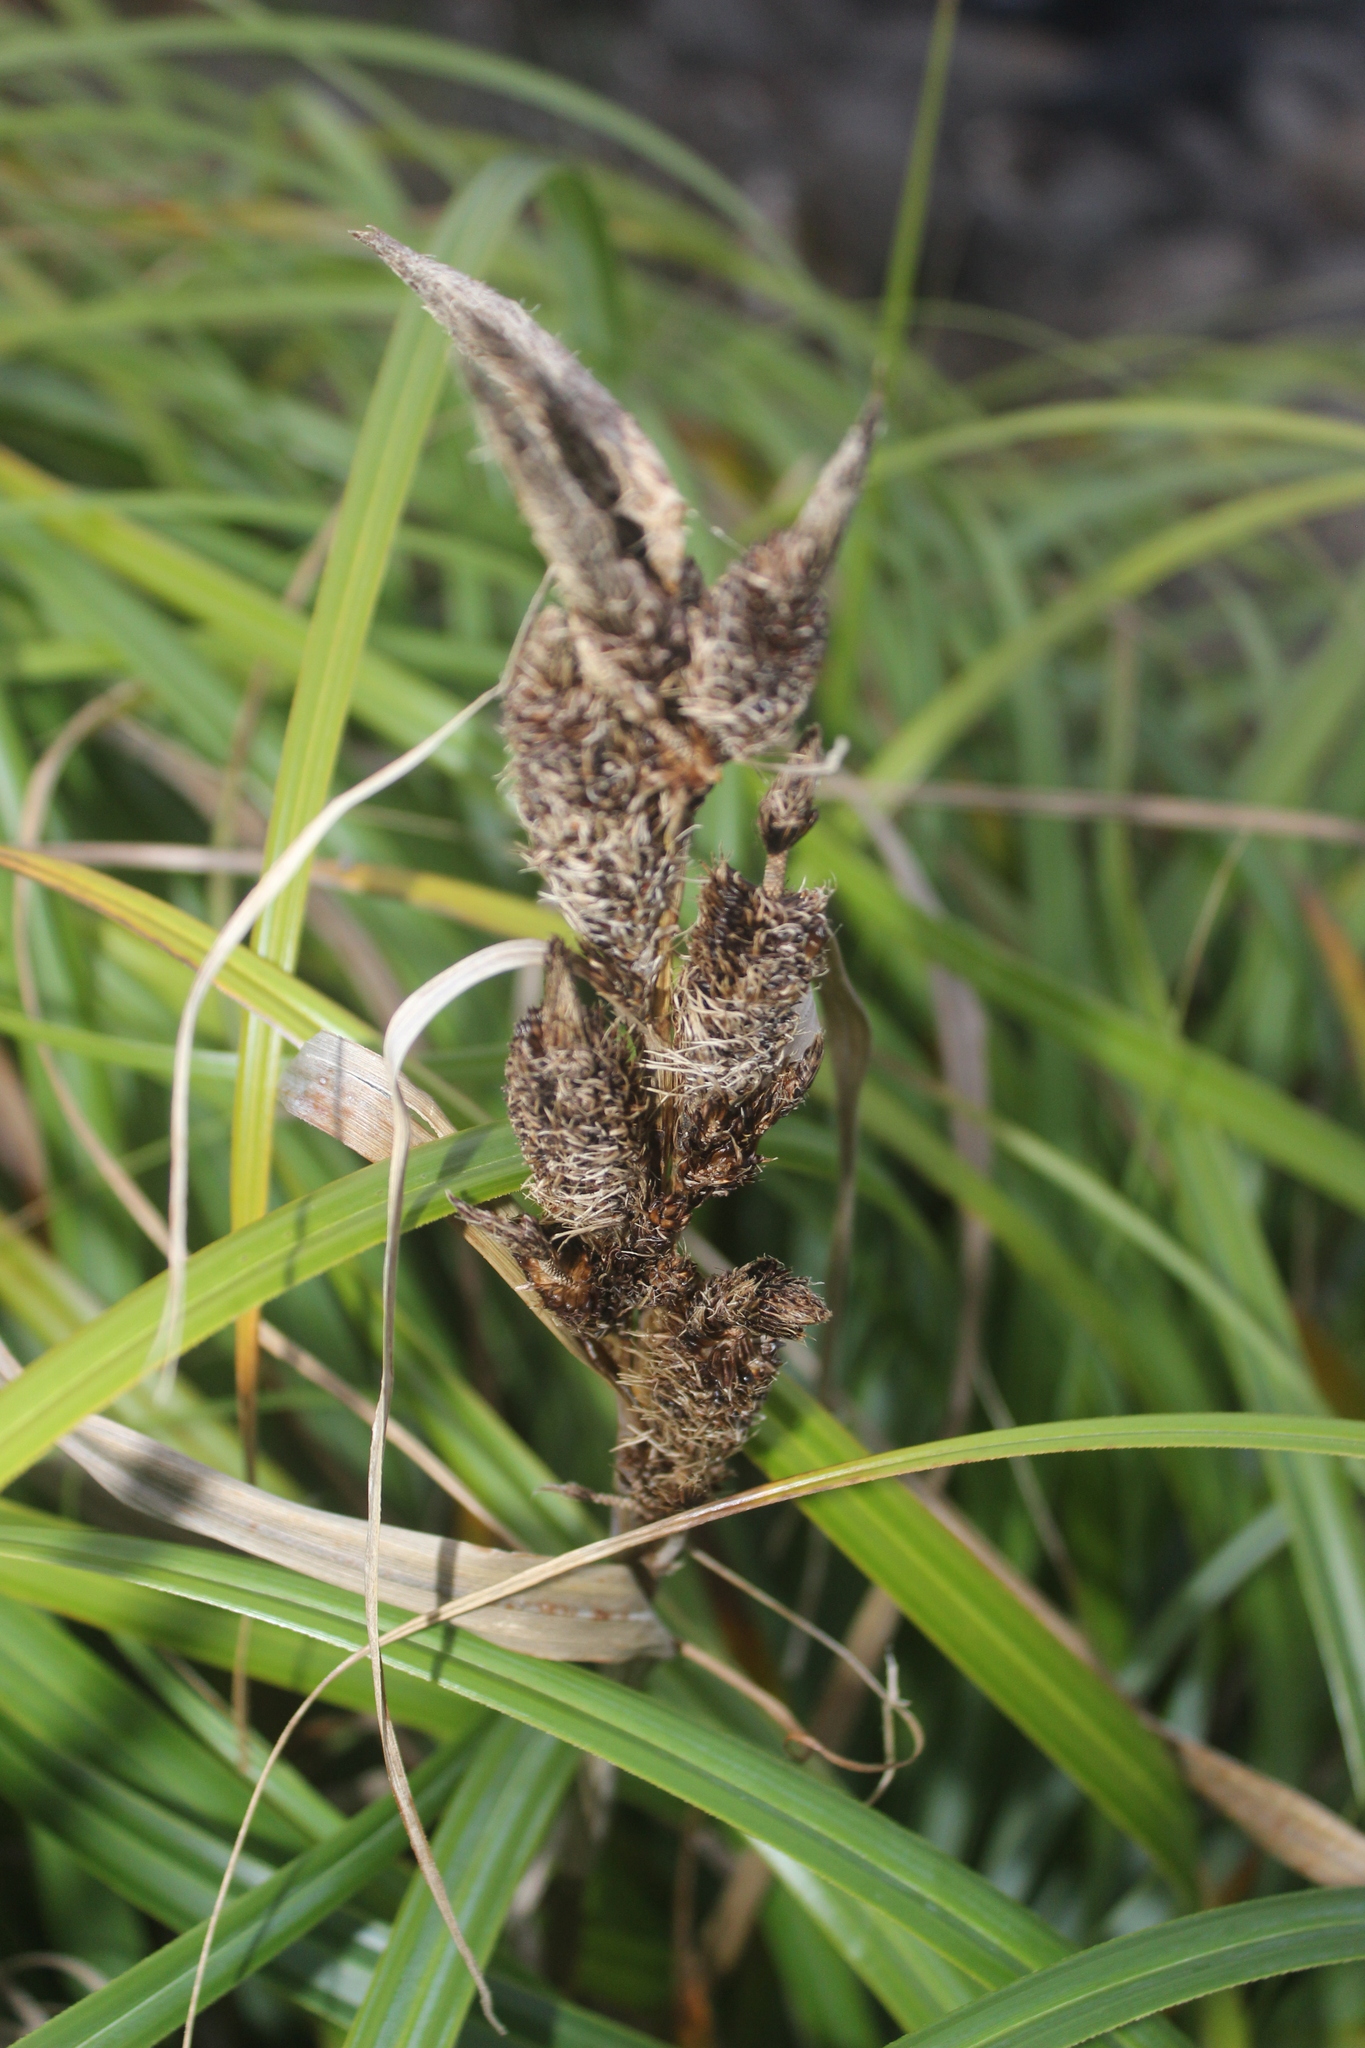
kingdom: Plantae
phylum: Tracheophyta
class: Liliopsida
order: Poales
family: Cyperaceae
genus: Carex
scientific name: Carex trifida
